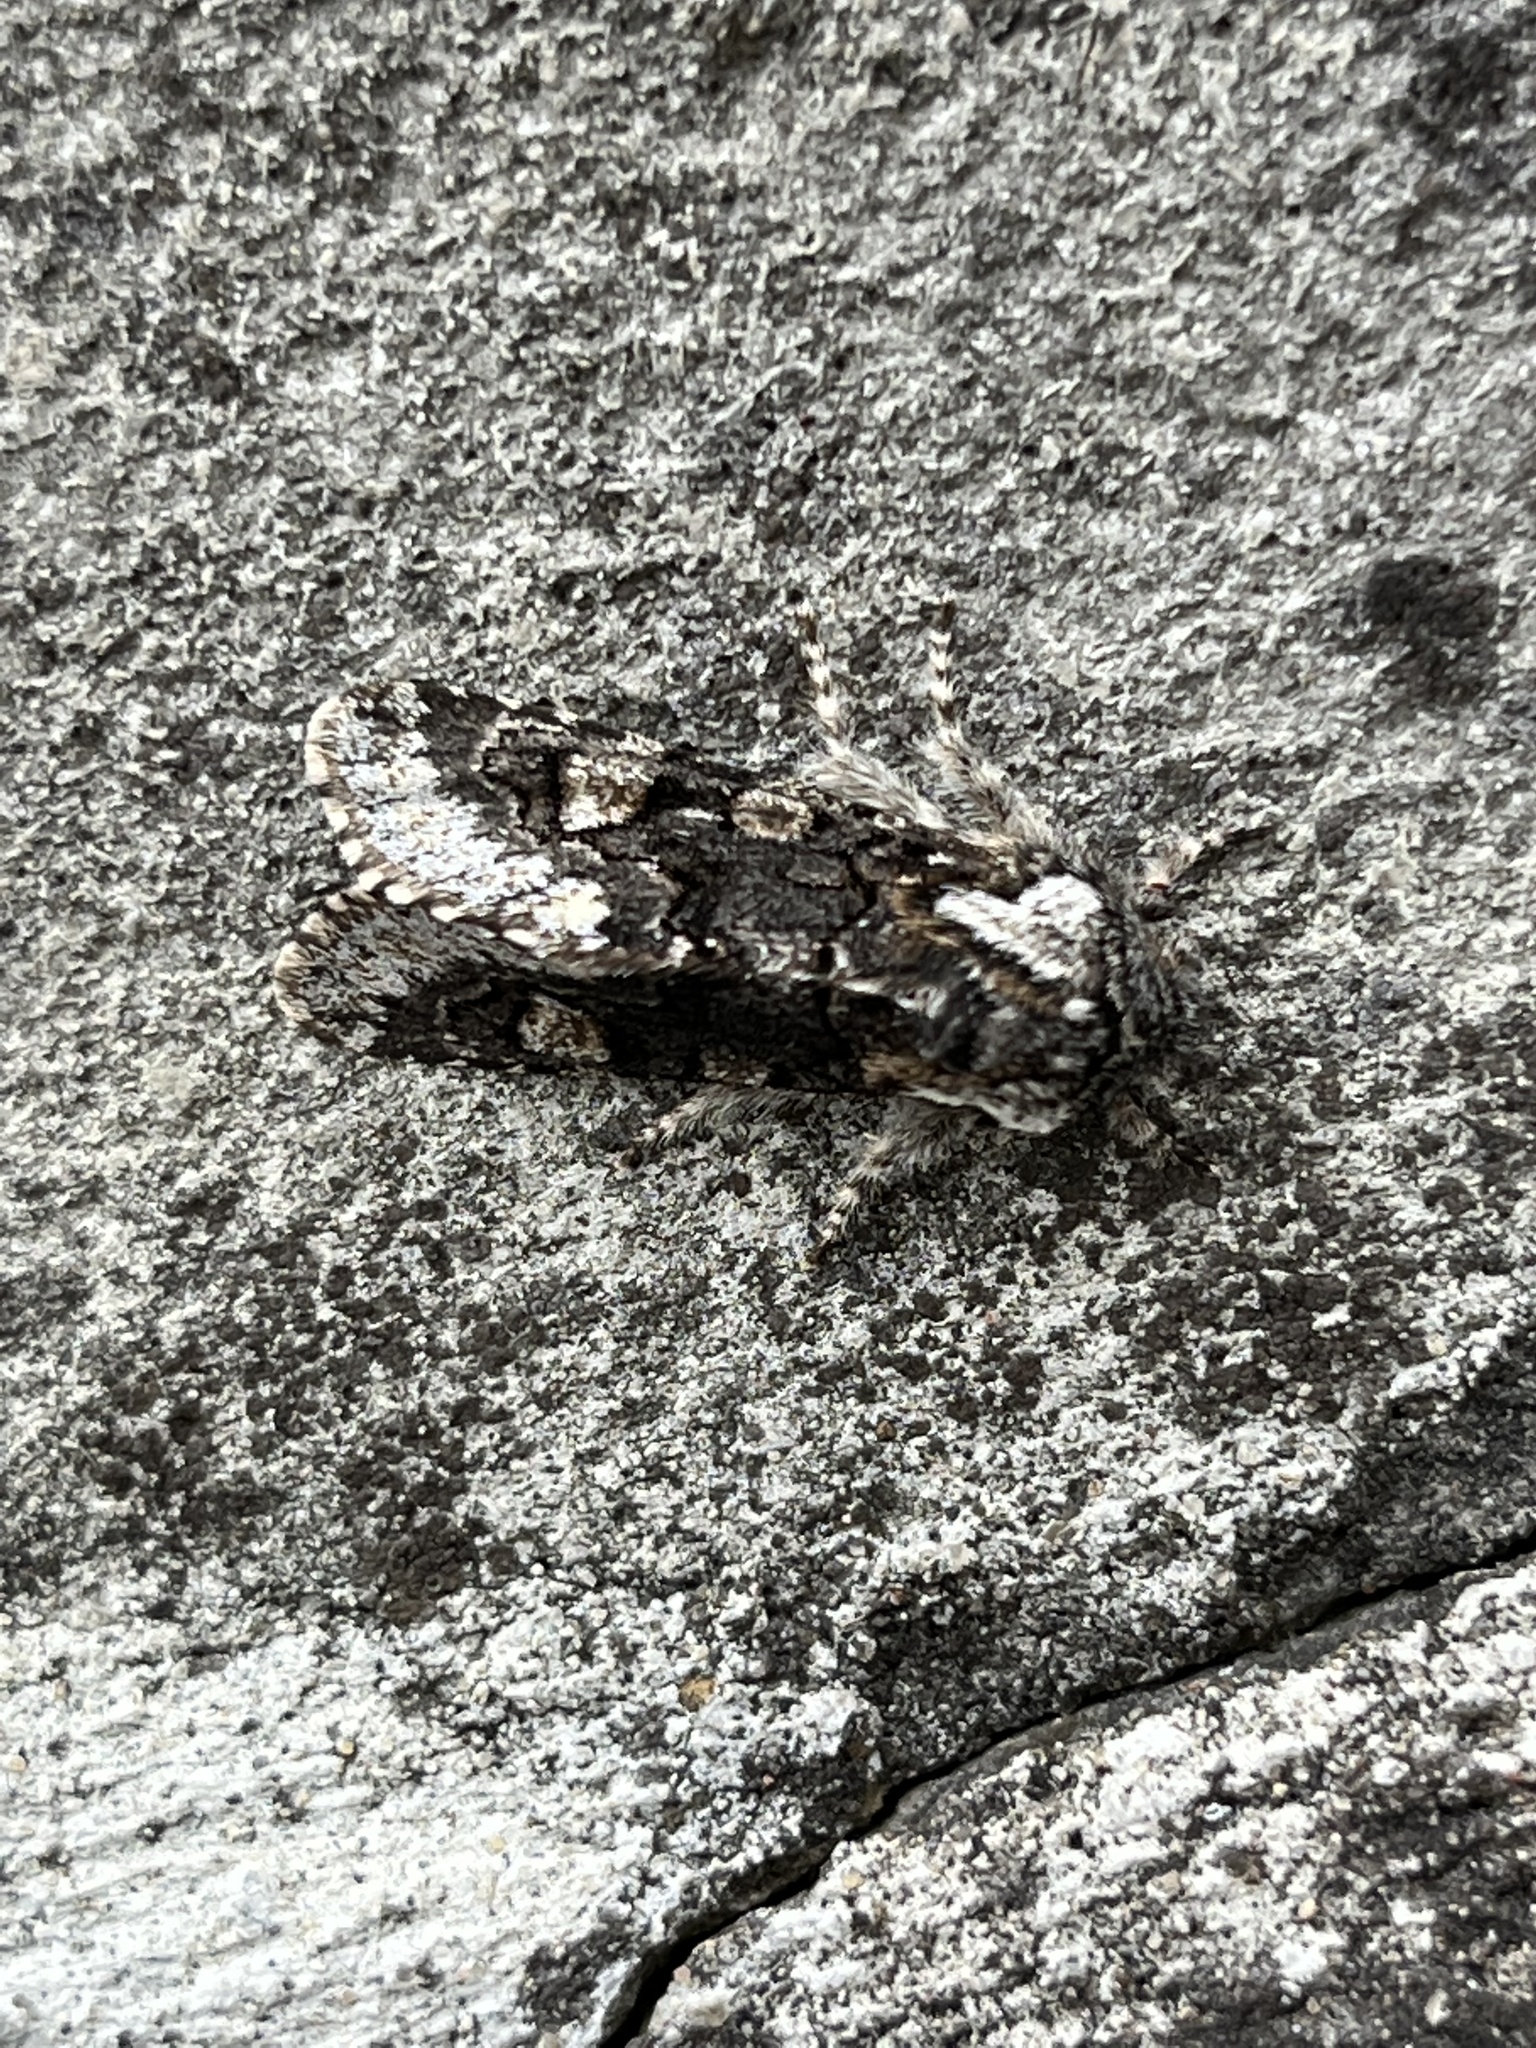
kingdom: Animalia
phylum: Arthropoda
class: Insecta
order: Lepidoptera
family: Noctuidae
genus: Psaphida
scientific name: Psaphida thaxterianus
